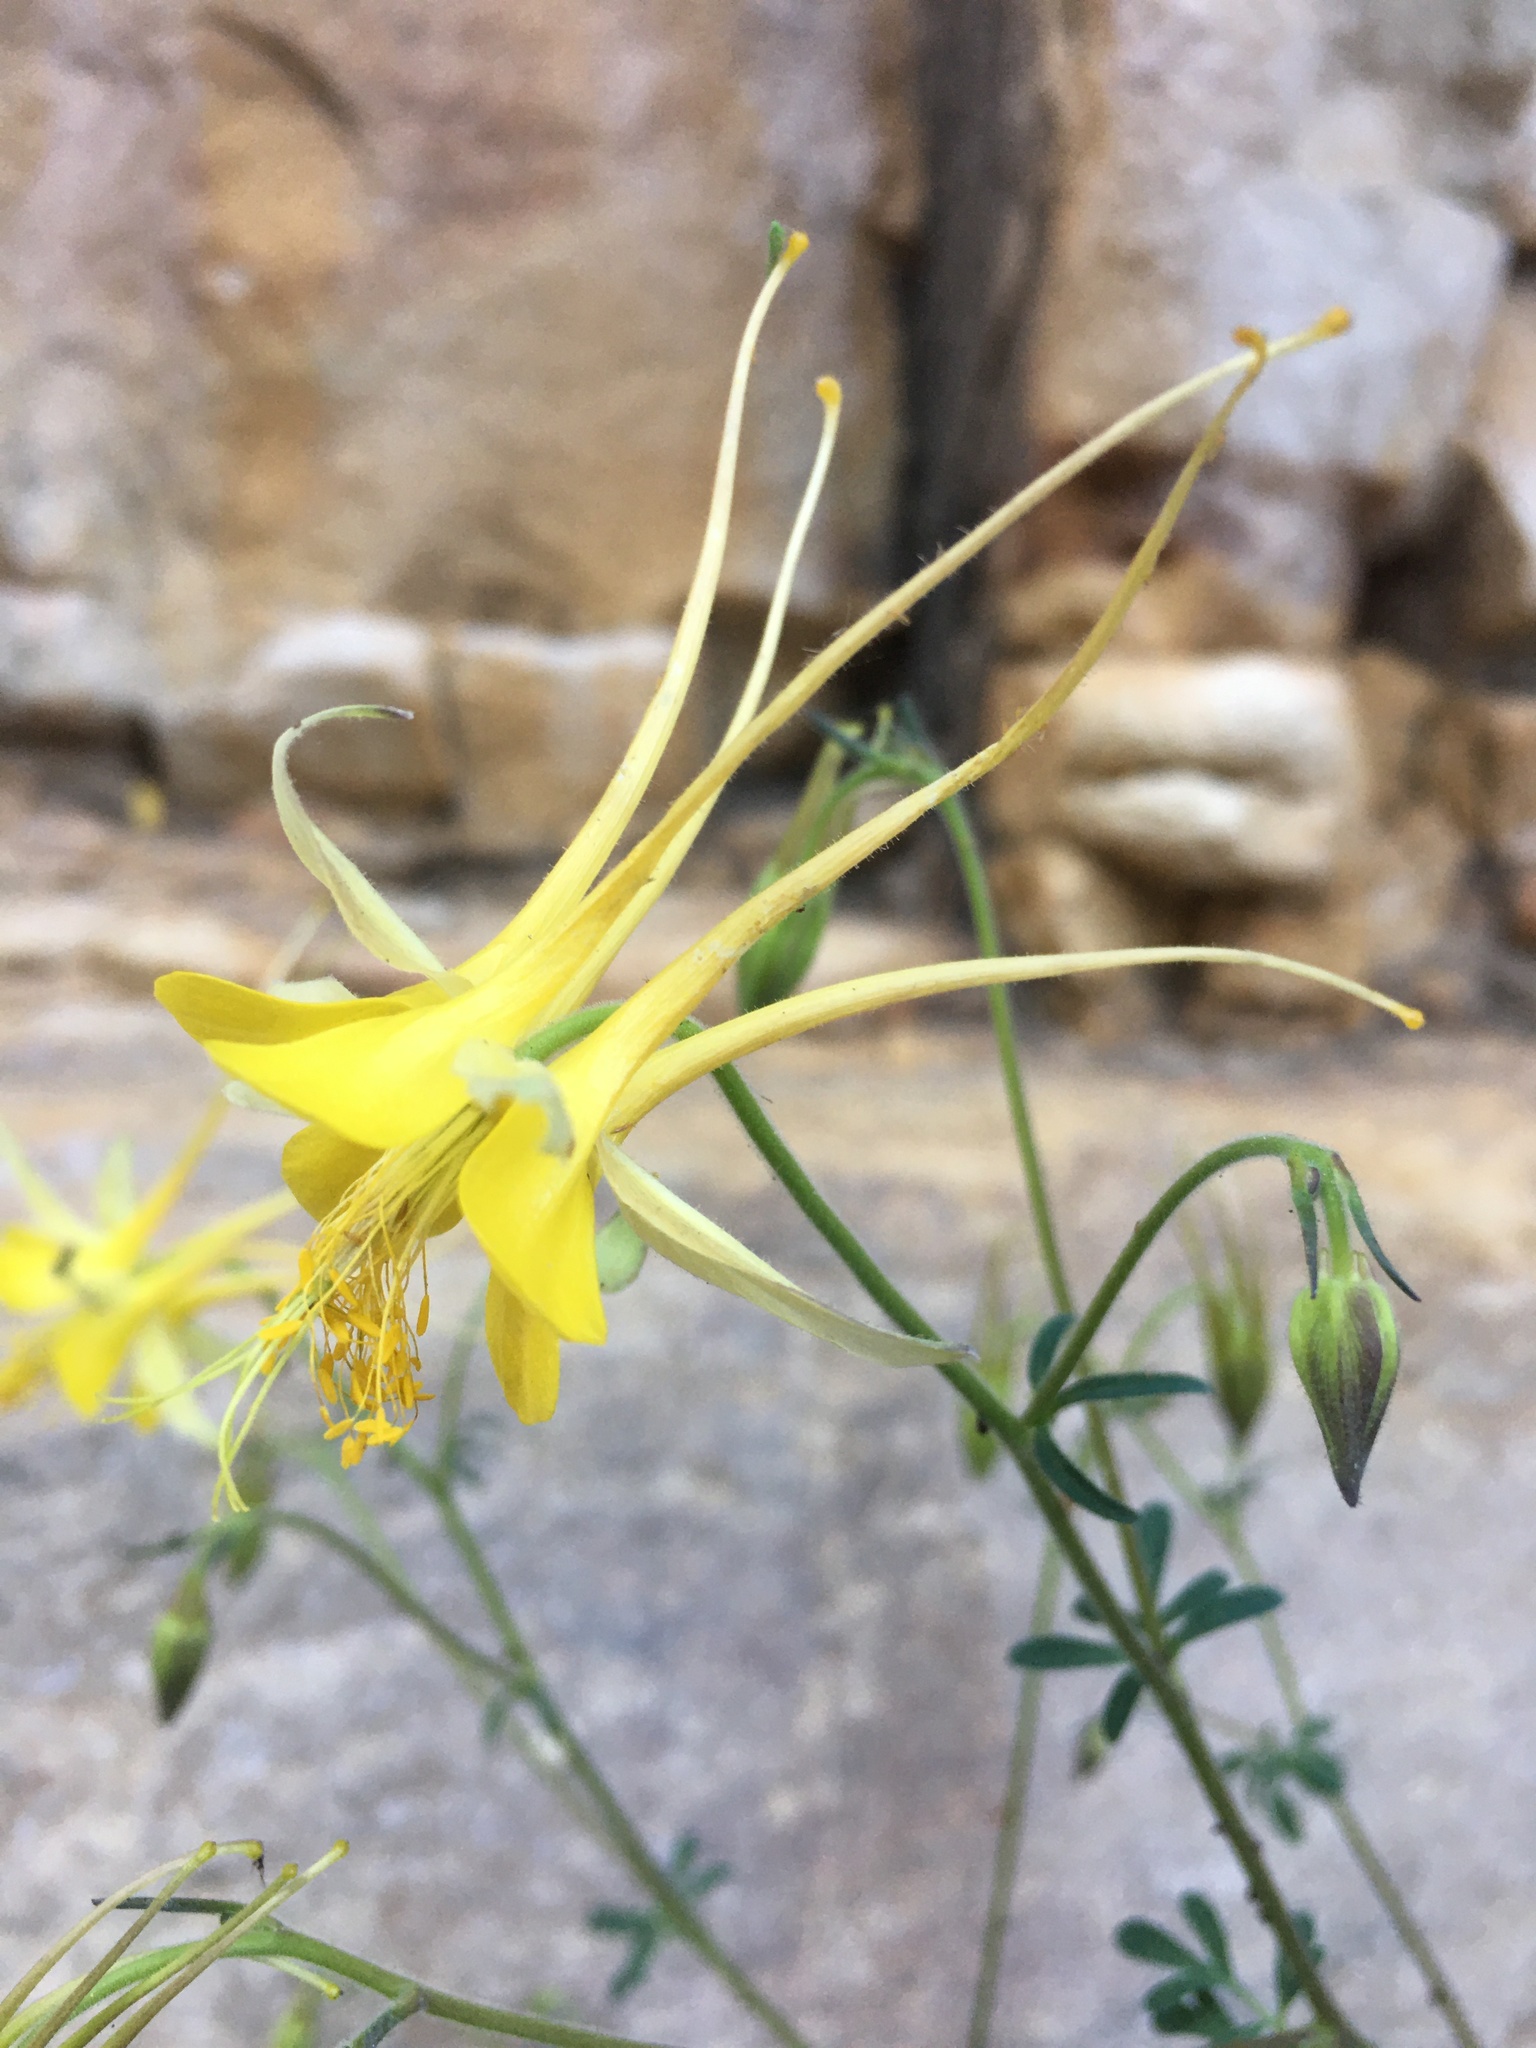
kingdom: Plantae
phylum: Tracheophyta
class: Magnoliopsida
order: Ranunculales
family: Ranunculaceae
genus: Aquilegia
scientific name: Aquilegia chrysantha
